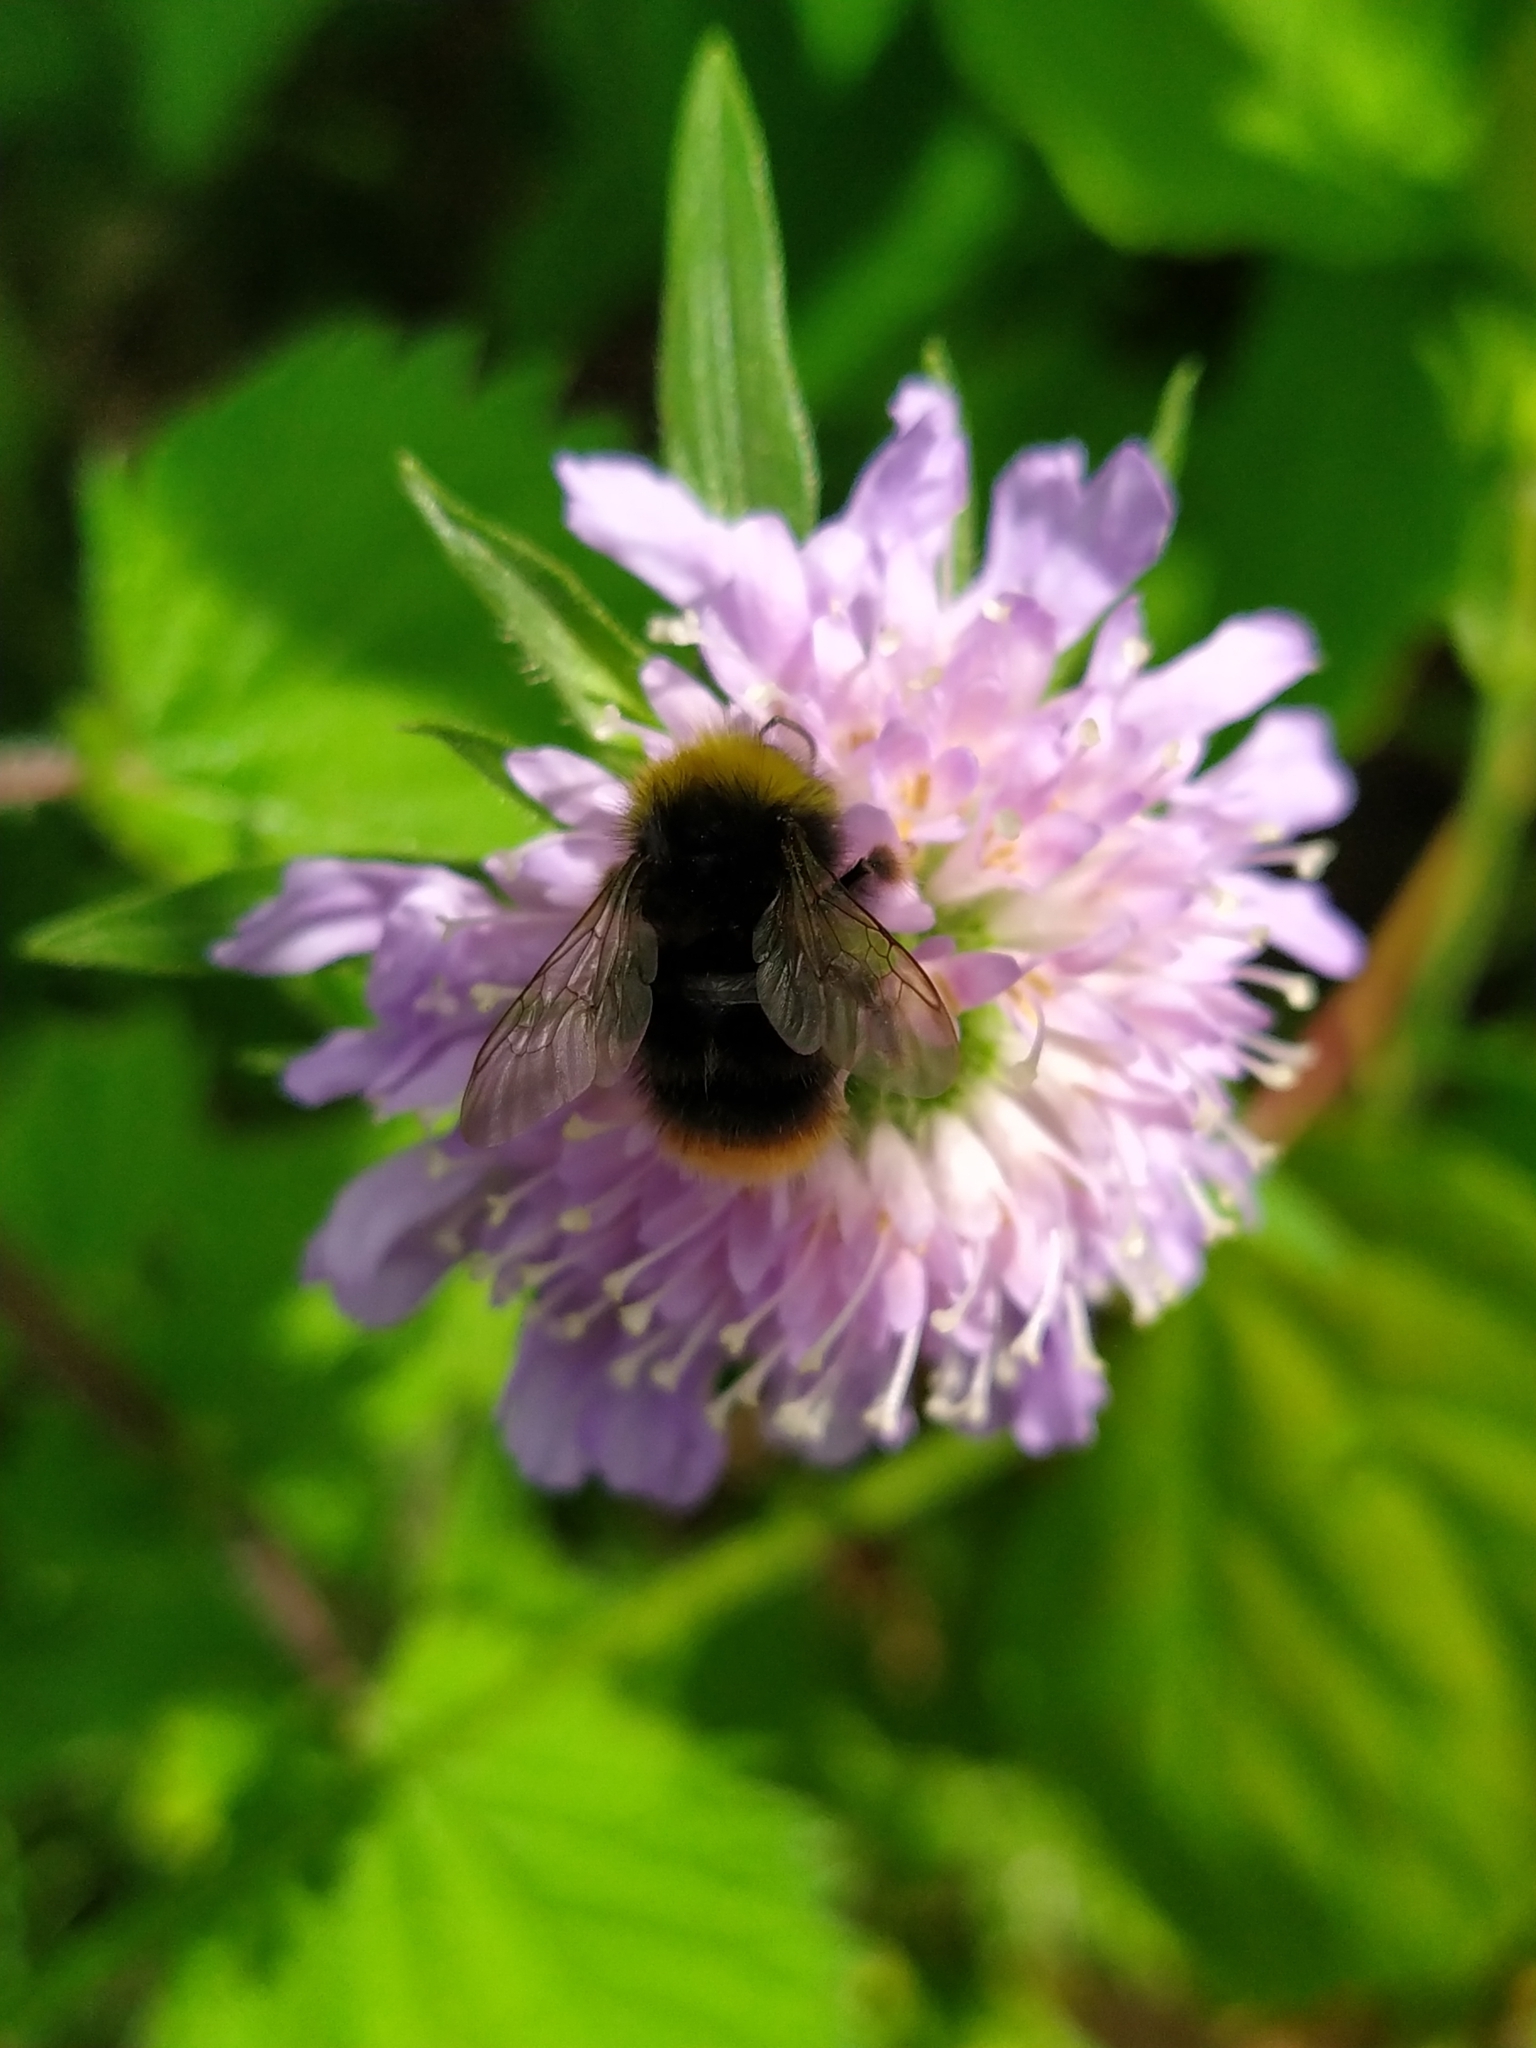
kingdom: Animalia
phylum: Arthropoda
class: Insecta
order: Hymenoptera
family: Apidae
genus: Bombus
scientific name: Bombus pratorum
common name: Early humble-bee
